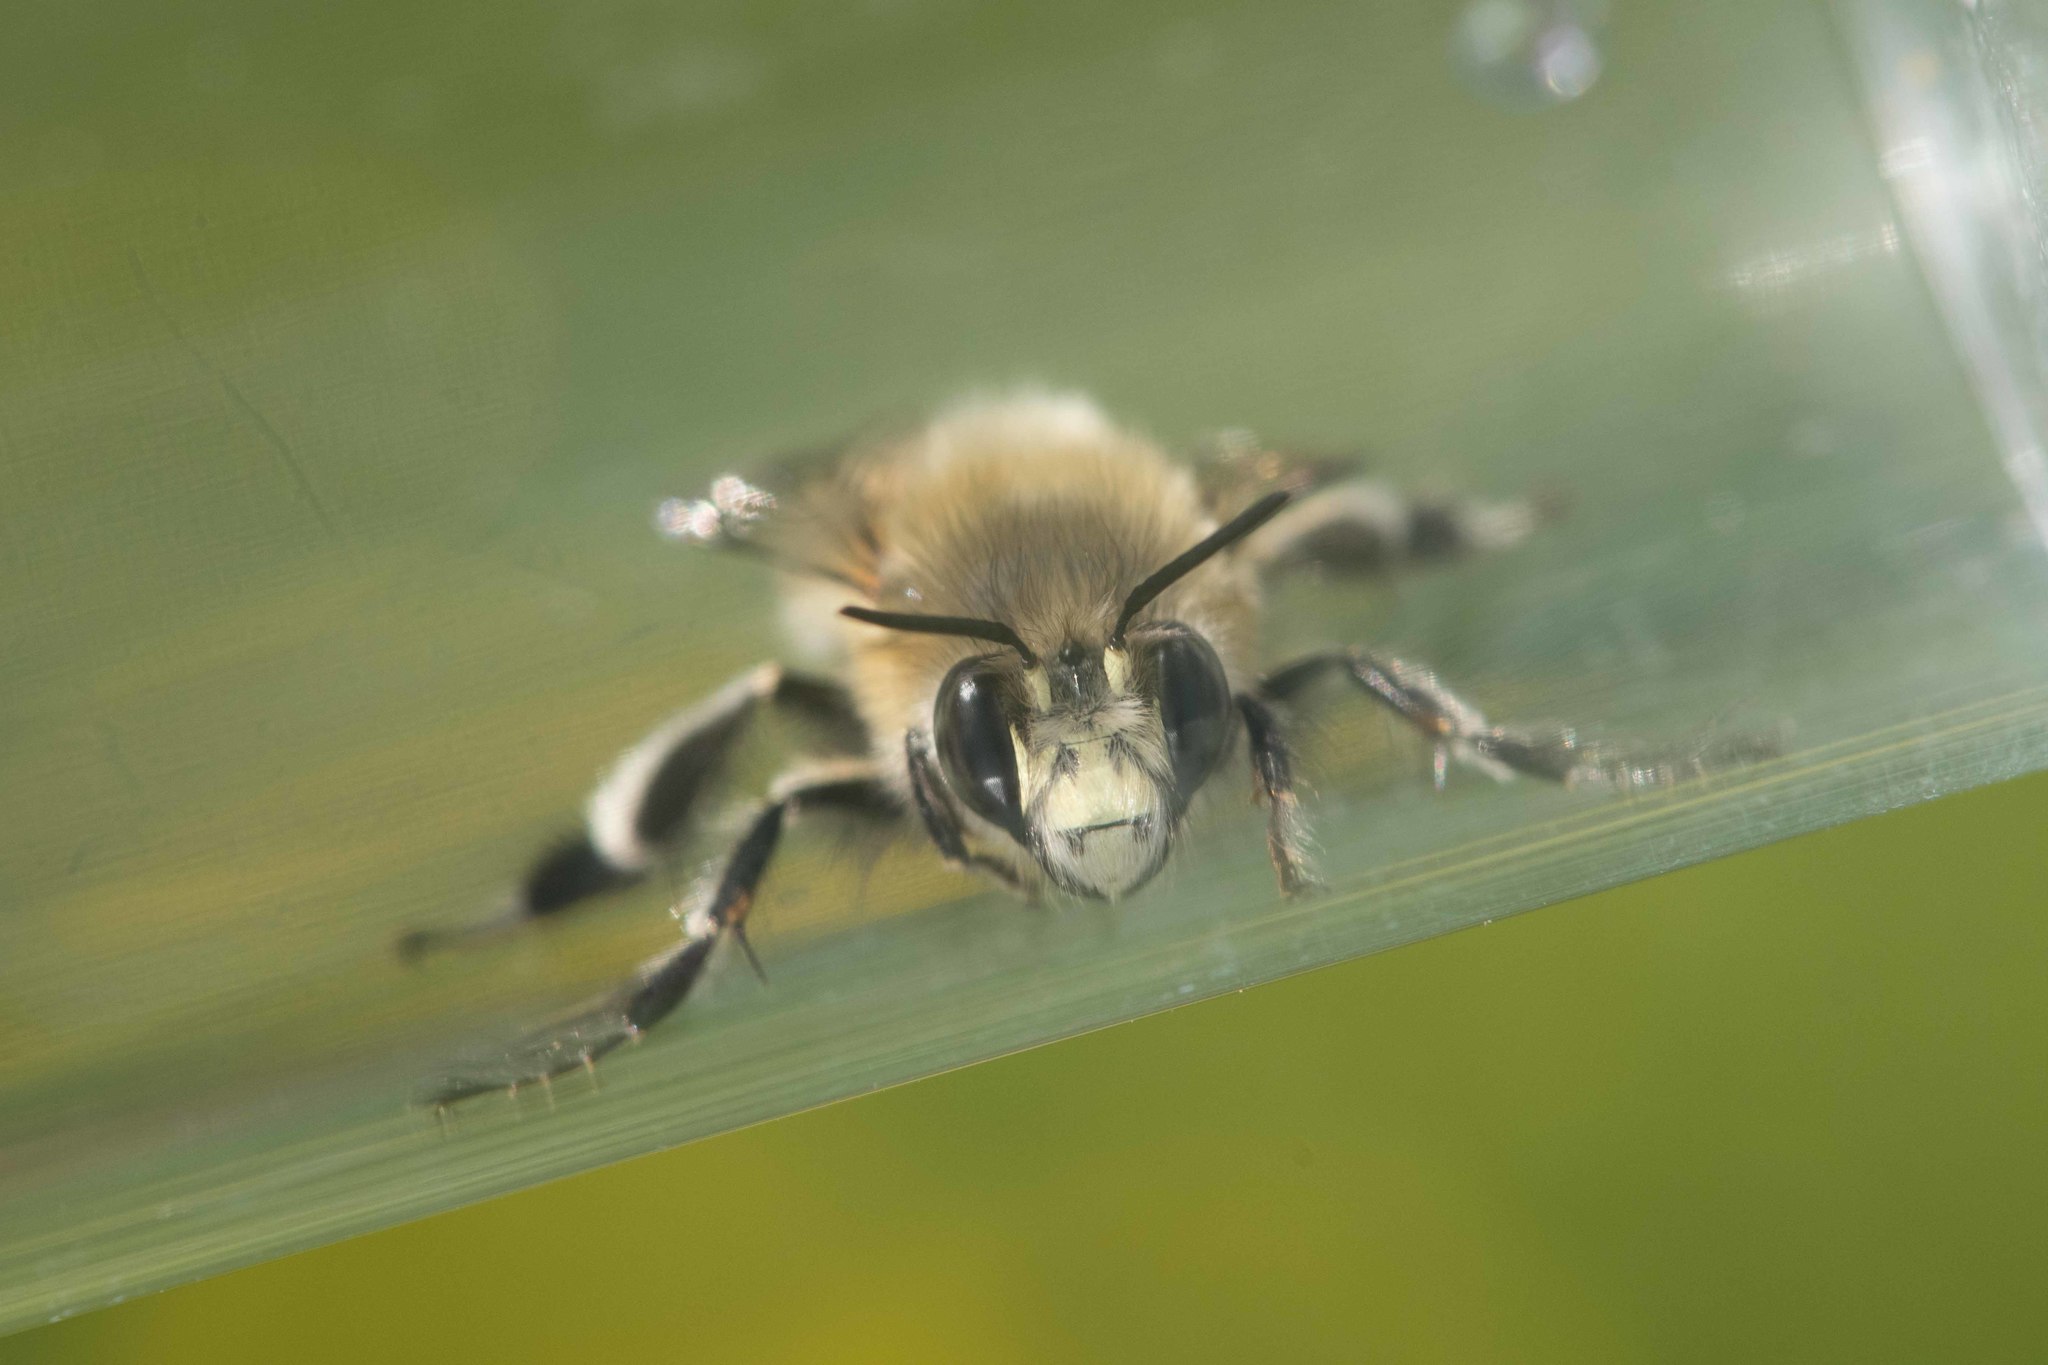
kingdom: Animalia
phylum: Arthropoda
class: Insecta
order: Hymenoptera
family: Apidae
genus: Anthophora
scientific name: Anthophora plumipes
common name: Hairy-footed flower bee
